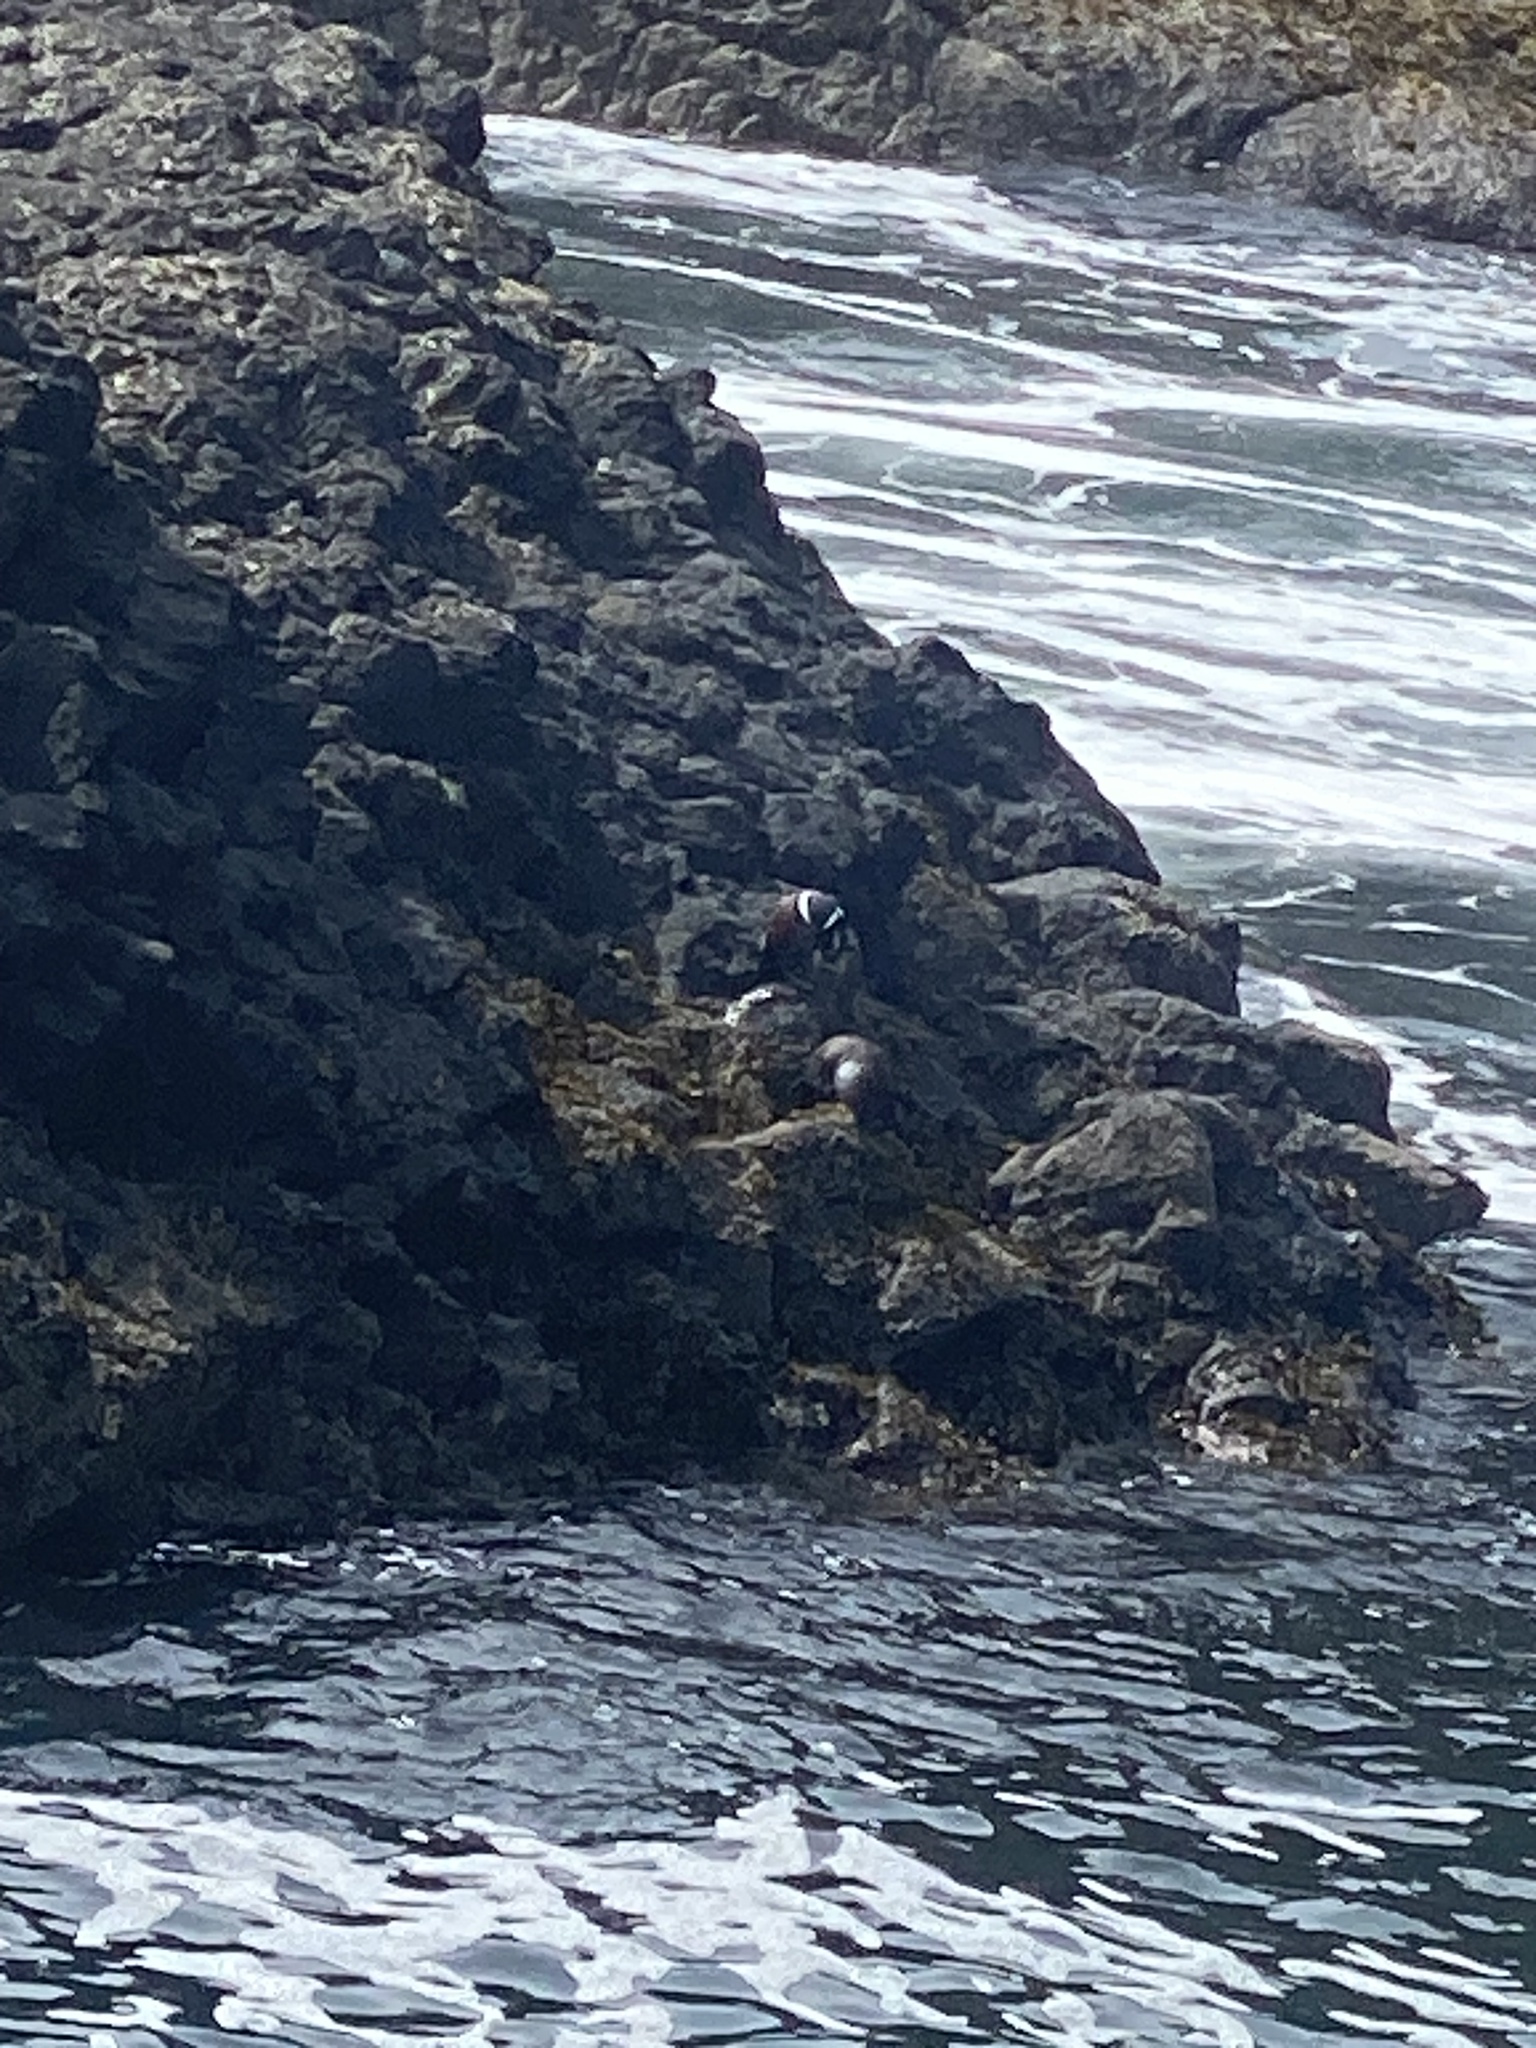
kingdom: Animalia
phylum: Chordata
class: Aves
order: Anseriformes
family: Anatidae
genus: Histrionicus
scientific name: Histrionicus histrionicus
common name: Harlequin duck
